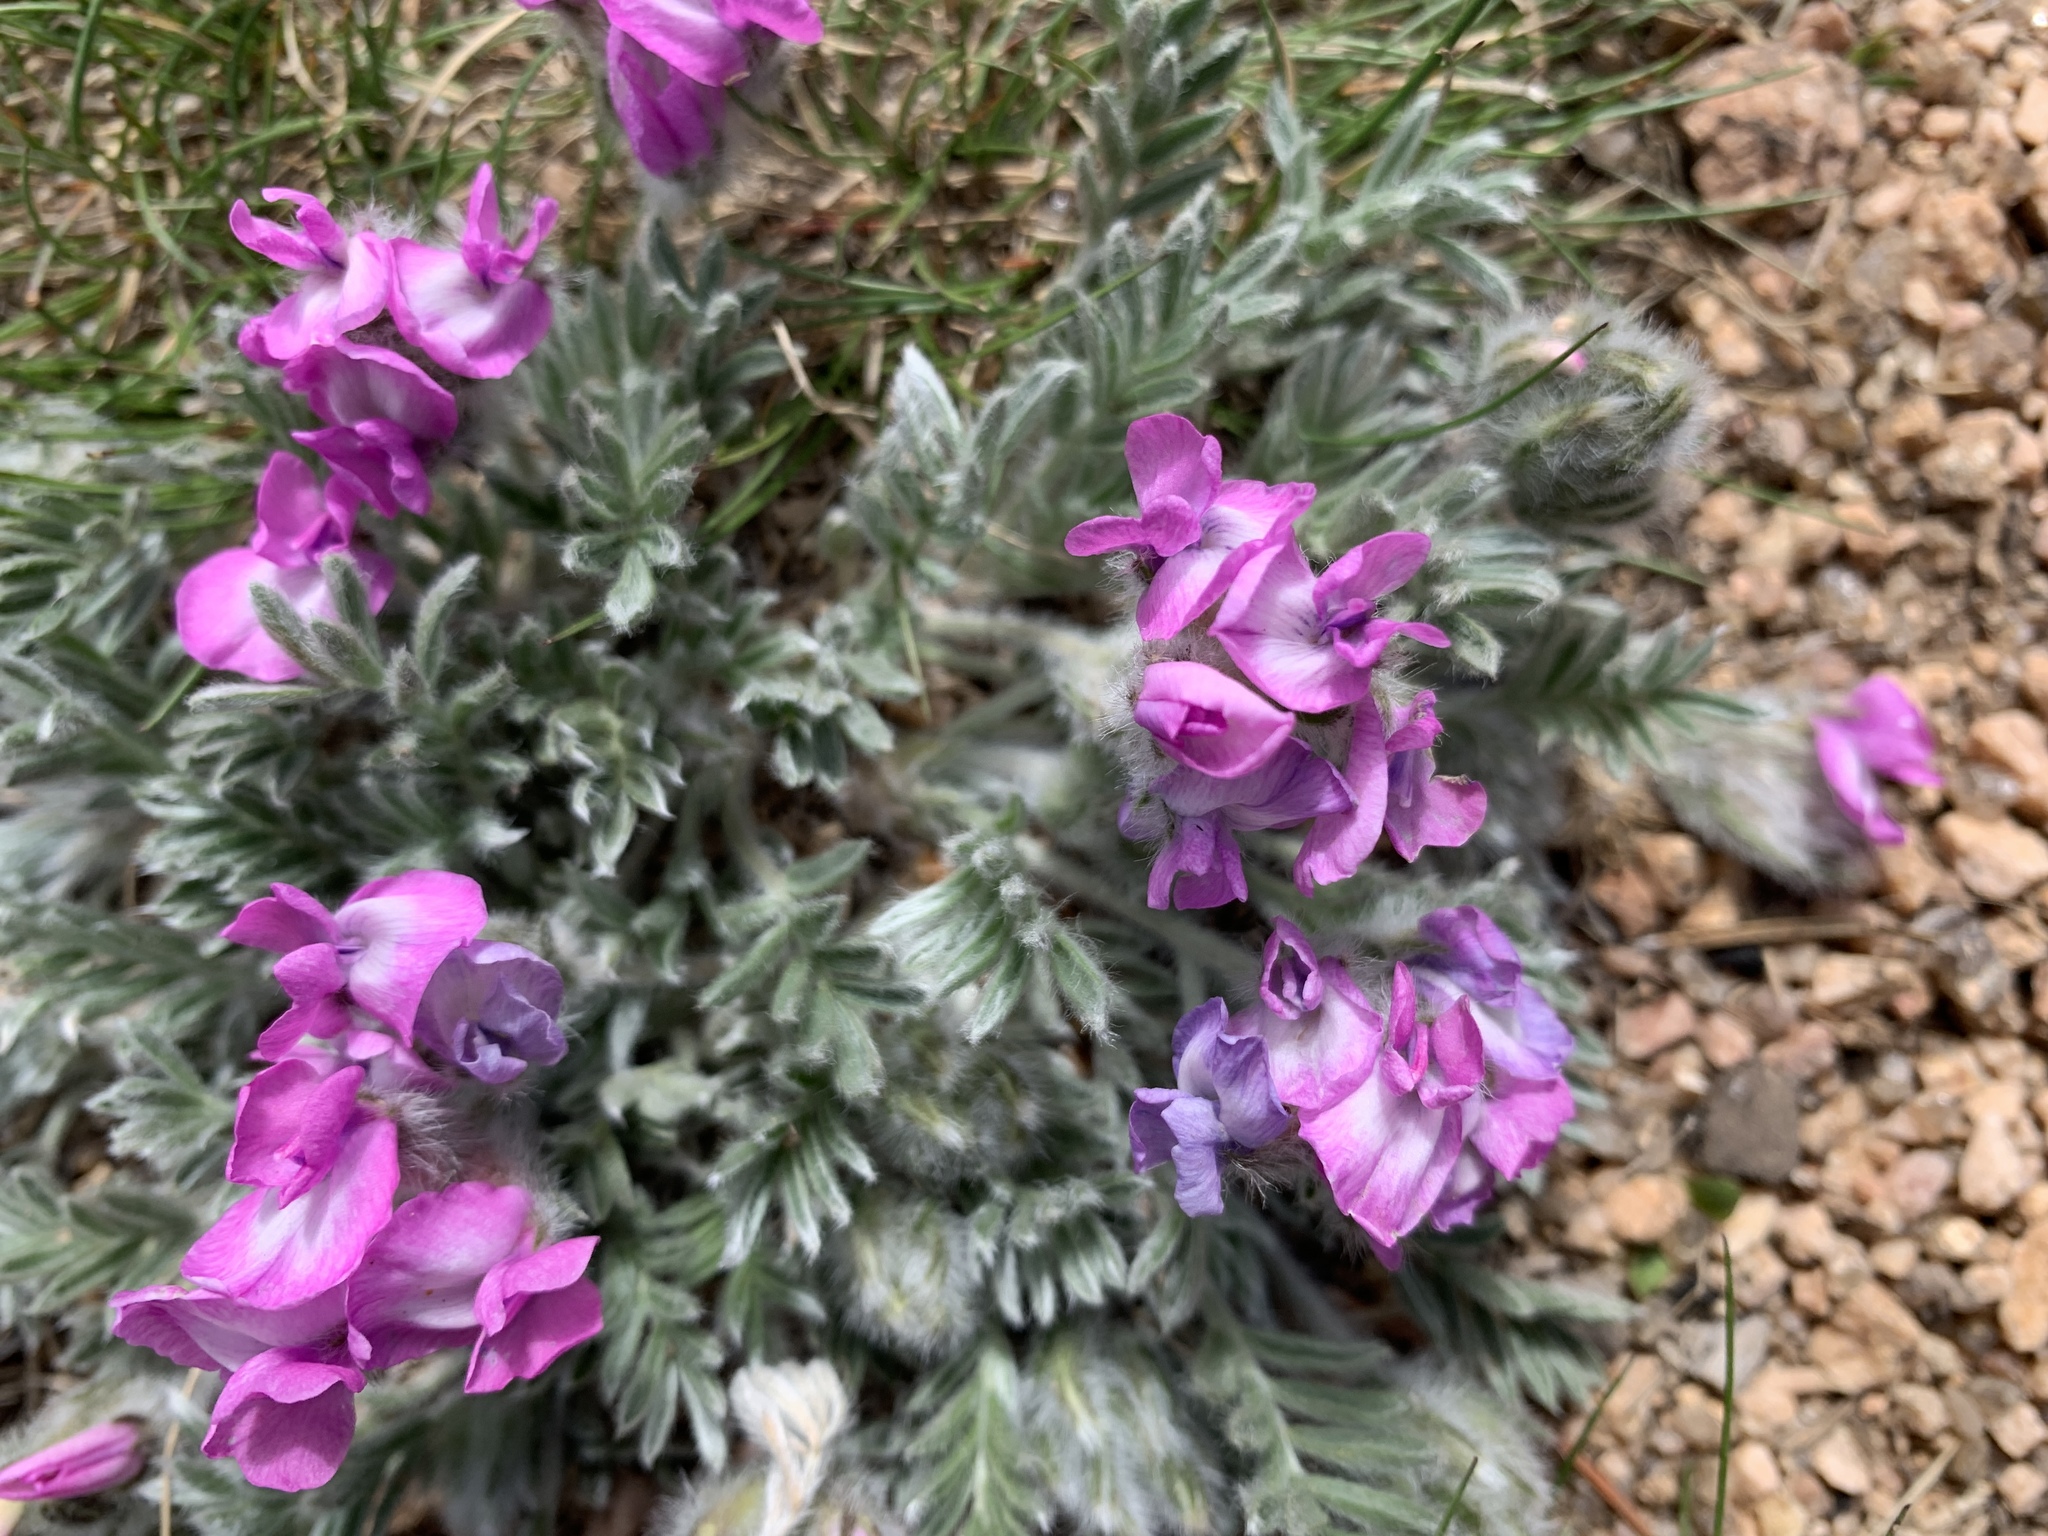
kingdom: Plantae
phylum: Tracheophyta
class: Magnoliopsida
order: Fabales
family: Fabaceae
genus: Oxytropis
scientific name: Oxytropis lagopus
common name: Hare's-foot locoweed
